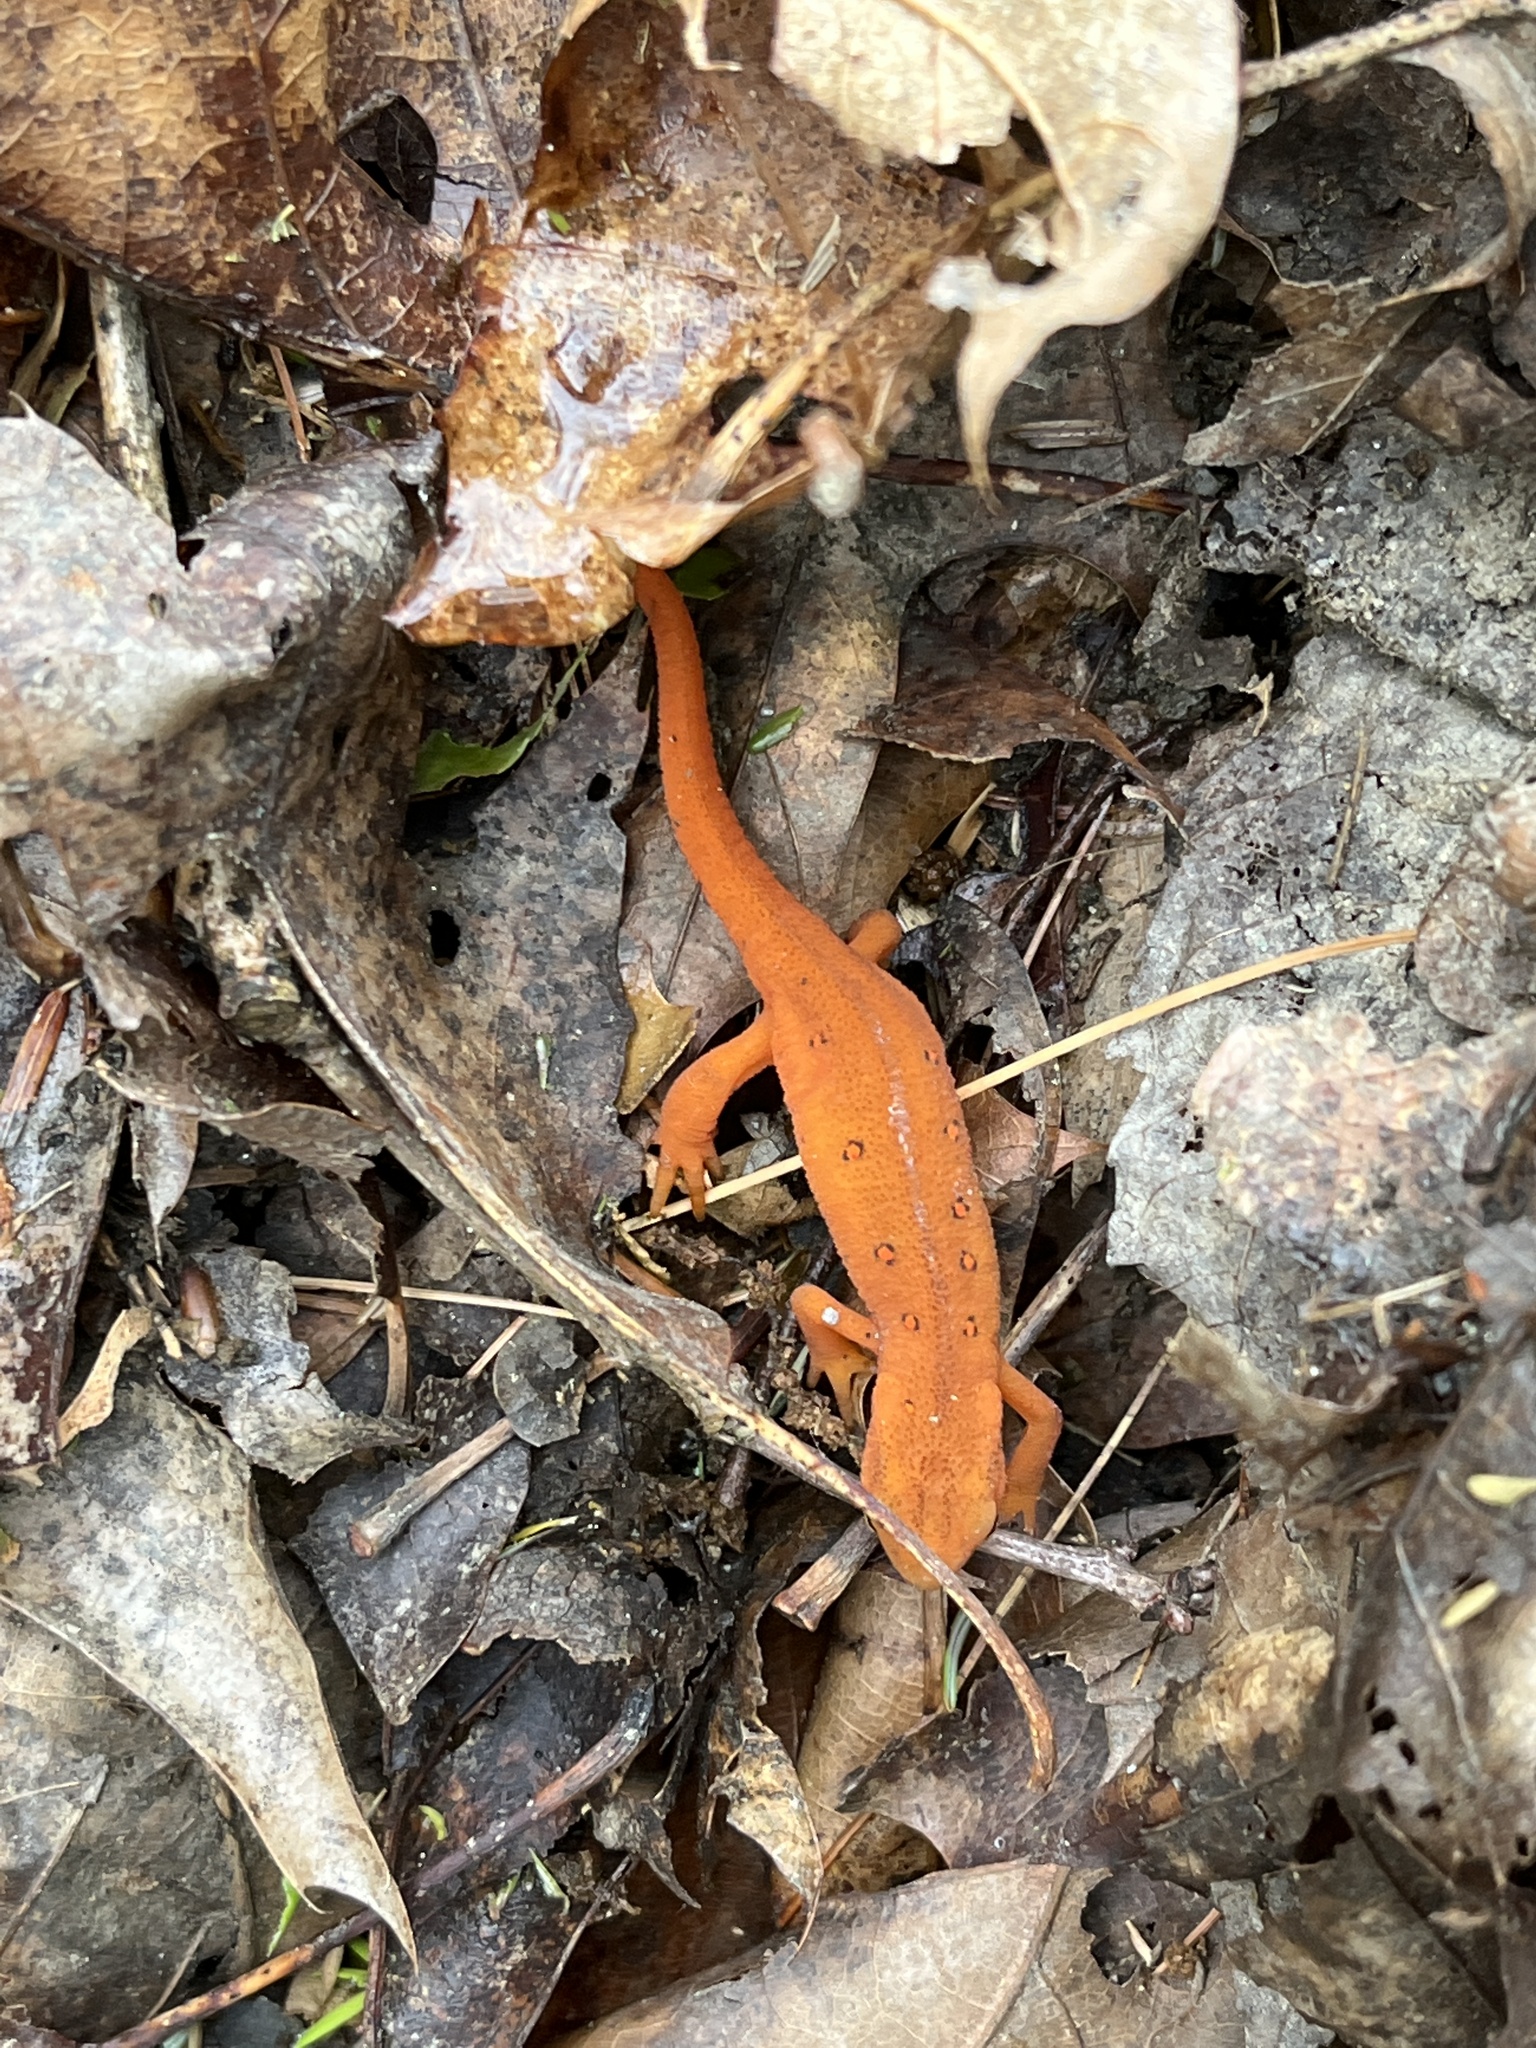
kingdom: Animalia
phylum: Chordata
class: Amphibia
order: Caudata
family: Salamandridae
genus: Notophthalmus
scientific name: Notophthalmus viridescens
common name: Eastern newt
